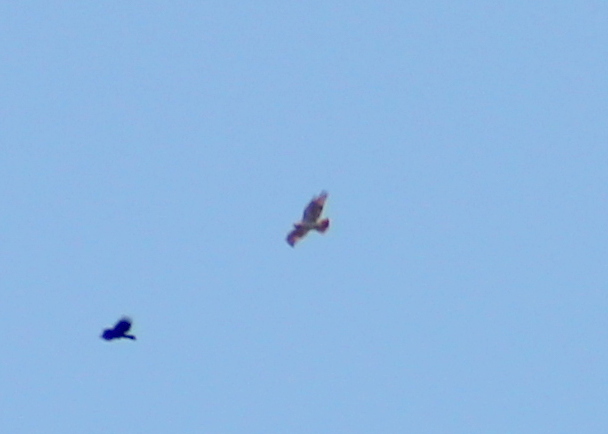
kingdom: Animalia
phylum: Chordata
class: Aves
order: Accipitriformes
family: Accipitridae
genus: Buteo
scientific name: Buteo jamaicensis
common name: Red-tailed hawk
